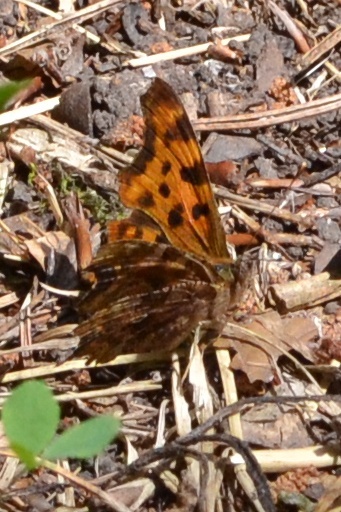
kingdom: Animalia
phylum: Arthropoda
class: Insecta
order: Lepidoptera
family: Nymphalidae
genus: Polygonia
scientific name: Polygonia c-album
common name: Comma
